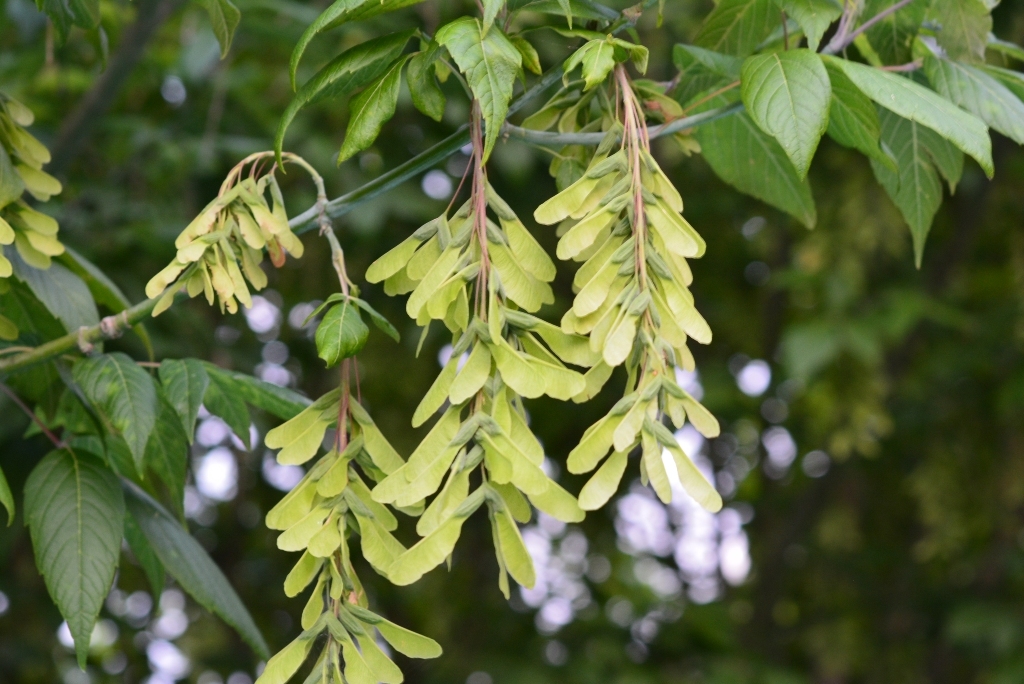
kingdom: Plantae
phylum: Tracheophyta
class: Magnoliopsida
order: Sapindales
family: Sapindaceae
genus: Acer
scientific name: Acer negundo
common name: Ashleaf maple
